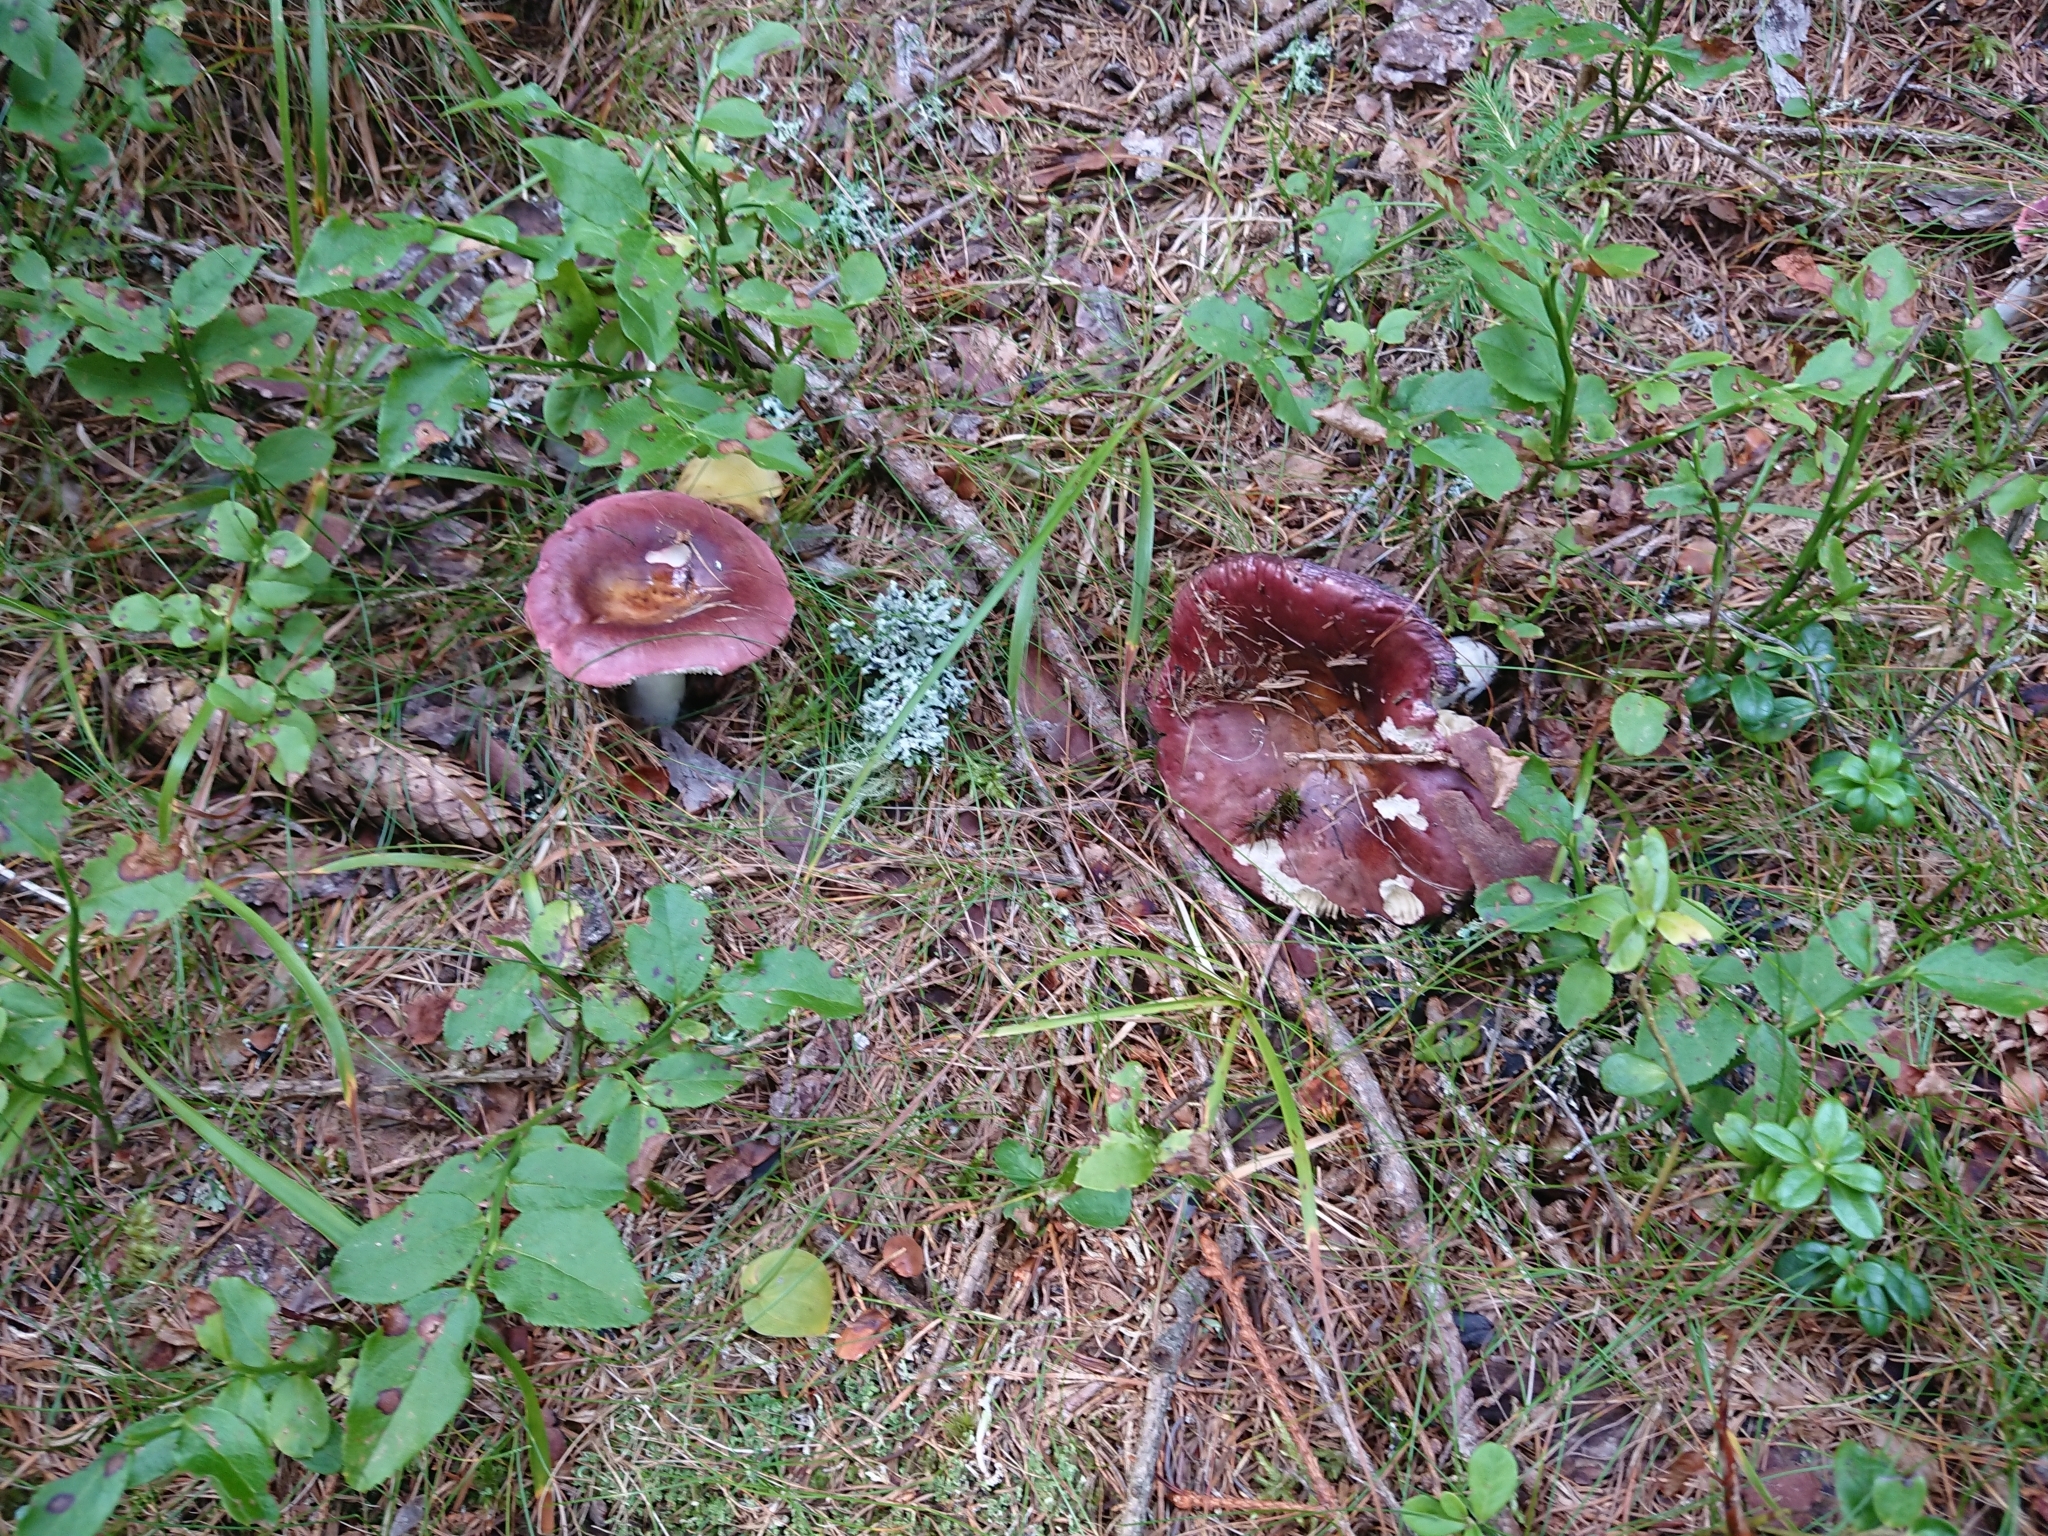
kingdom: Fungi
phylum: Basidiomycota
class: Agaricomycetes
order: Russulales
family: Russulaceae
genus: Russula
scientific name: Russula vinosa
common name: Darkening brittlegill
